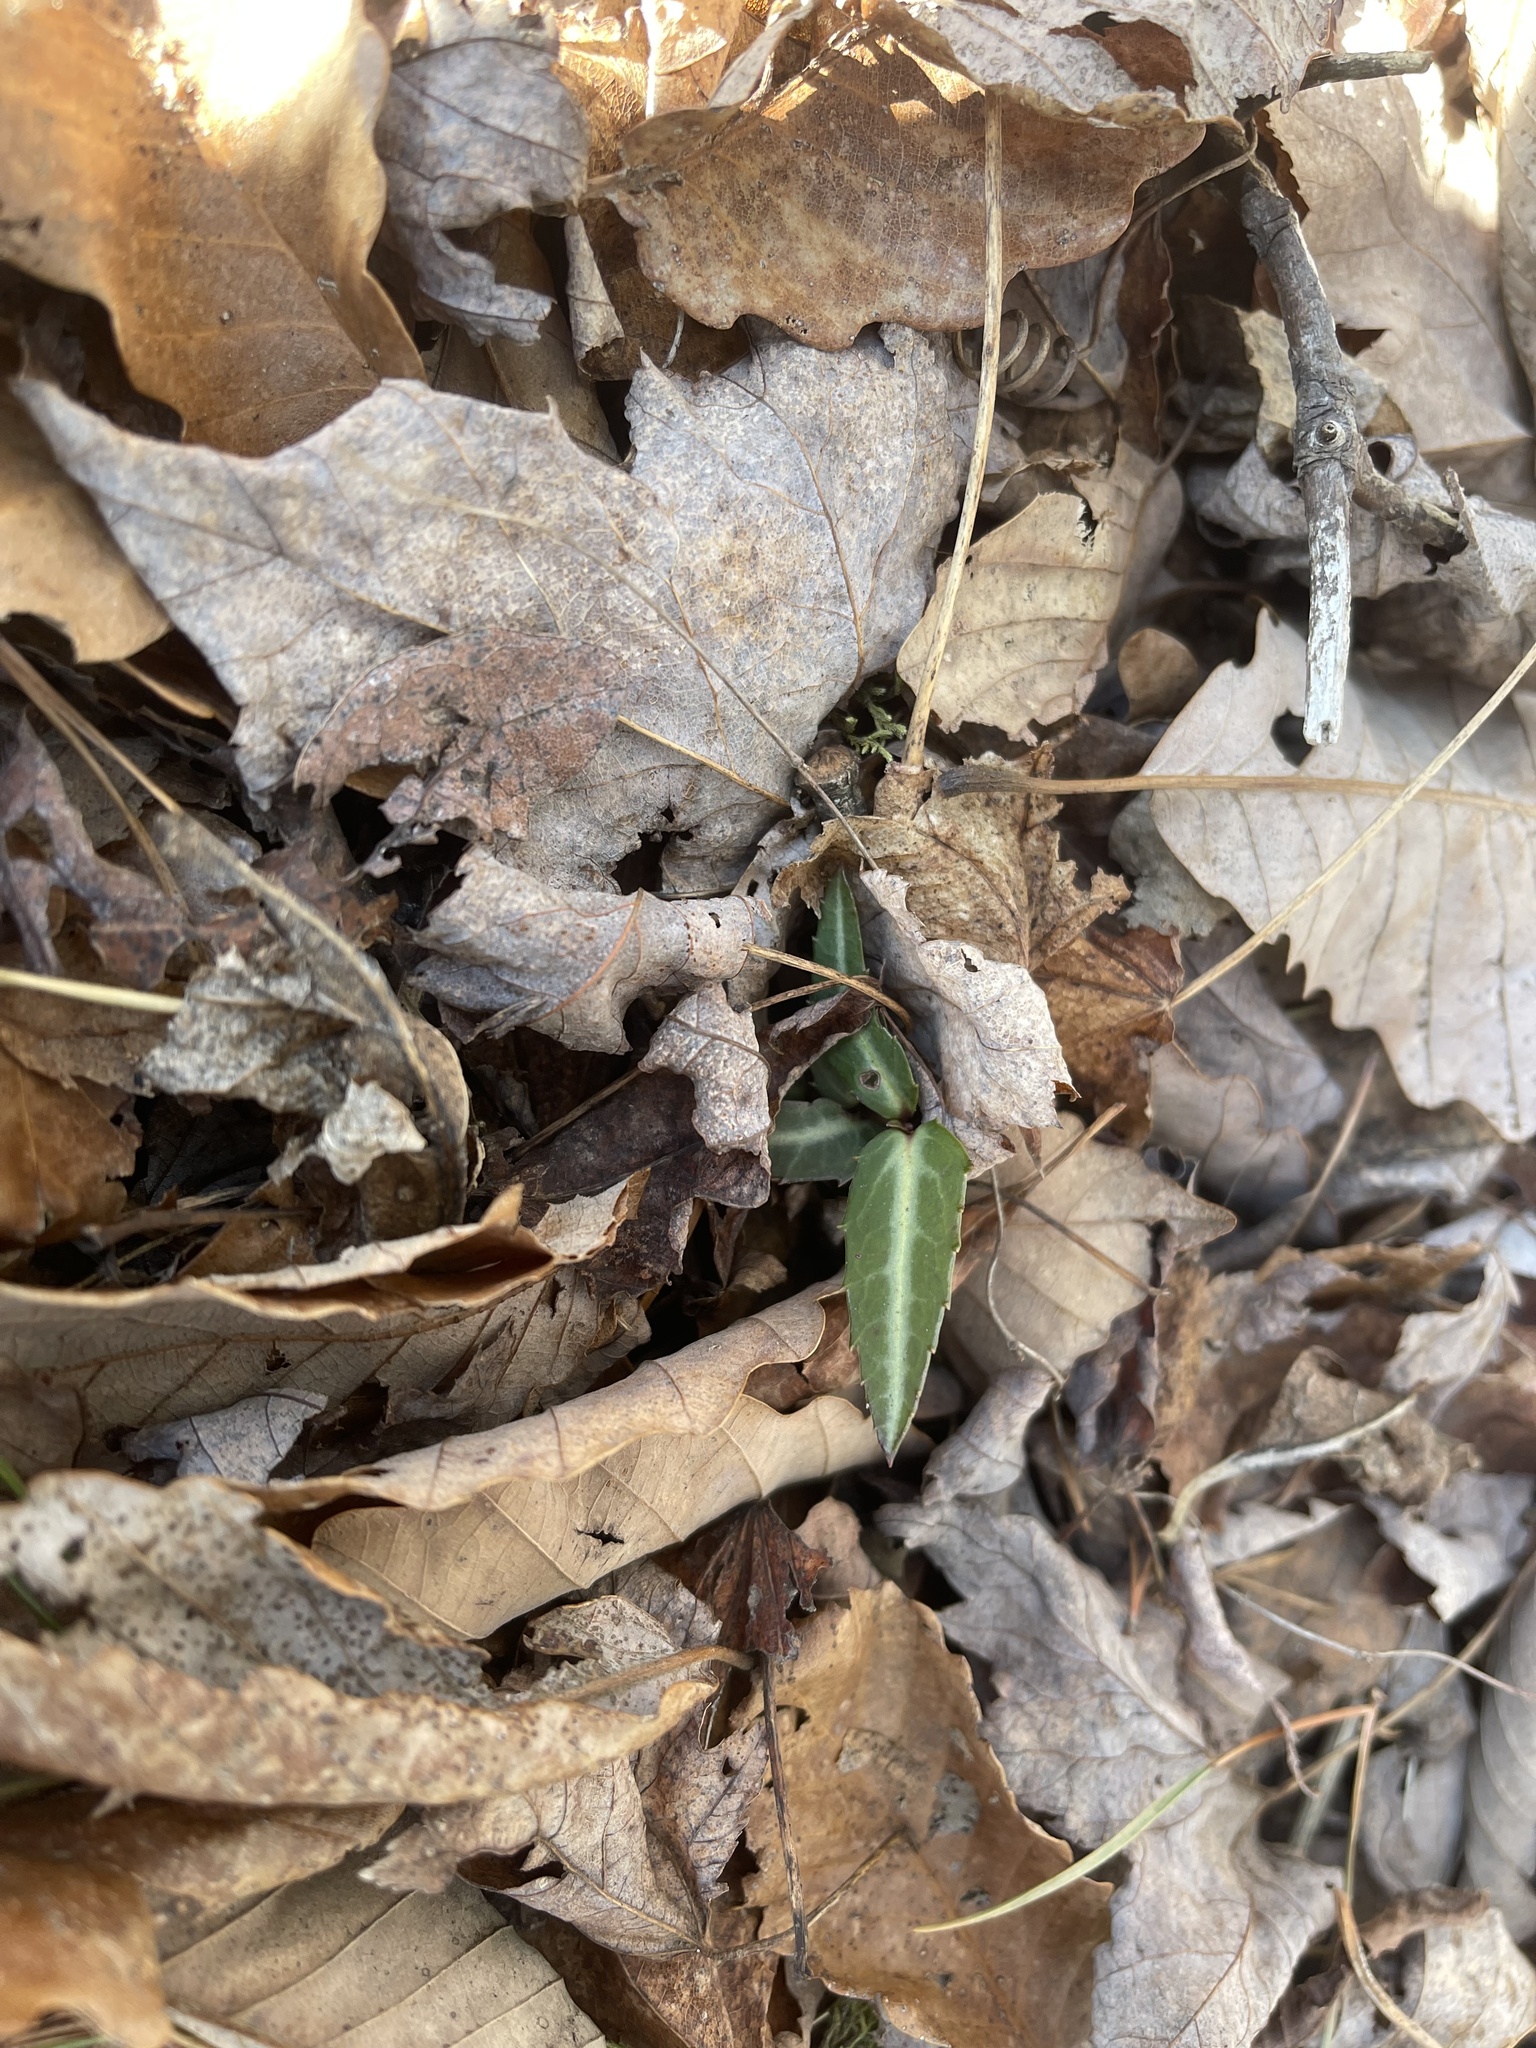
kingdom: Plantae
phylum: Tracheophyta
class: Magnoliopsida
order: Ericales
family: Ericaceae
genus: Chimaphila
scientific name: Chimaphila maculata
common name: Spotted pipsissewa
